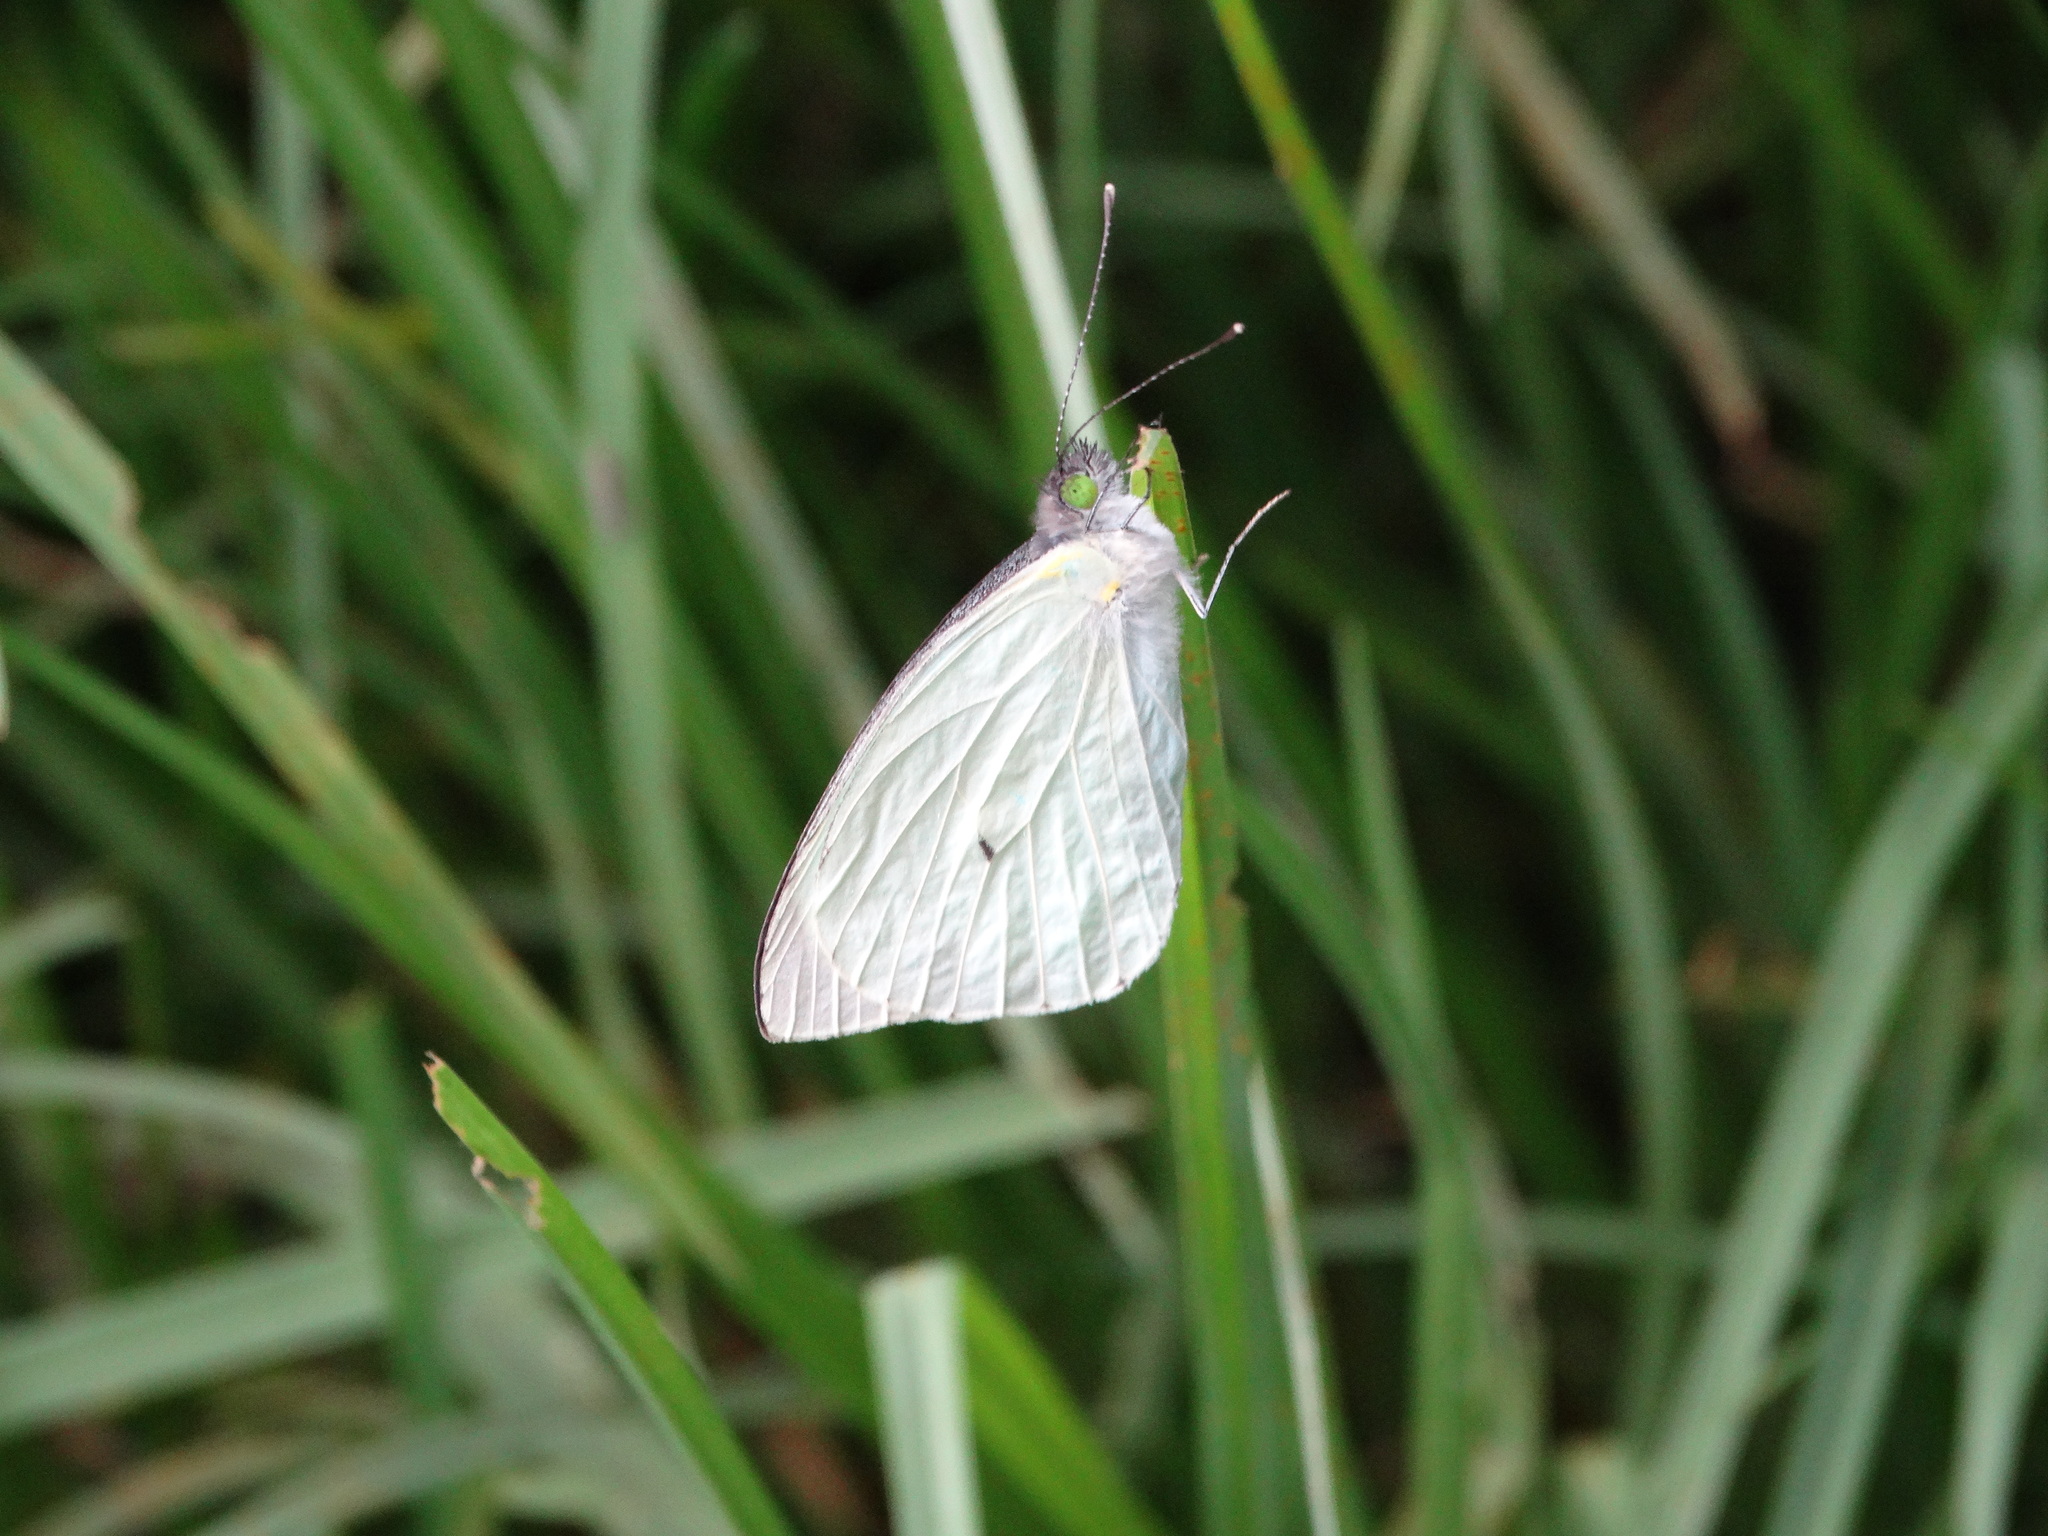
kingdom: Animalia
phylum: Arthropoda
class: Insecta
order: Lepidoptera
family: Pieridae
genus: Leptophobia
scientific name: Leptophobia aripa
